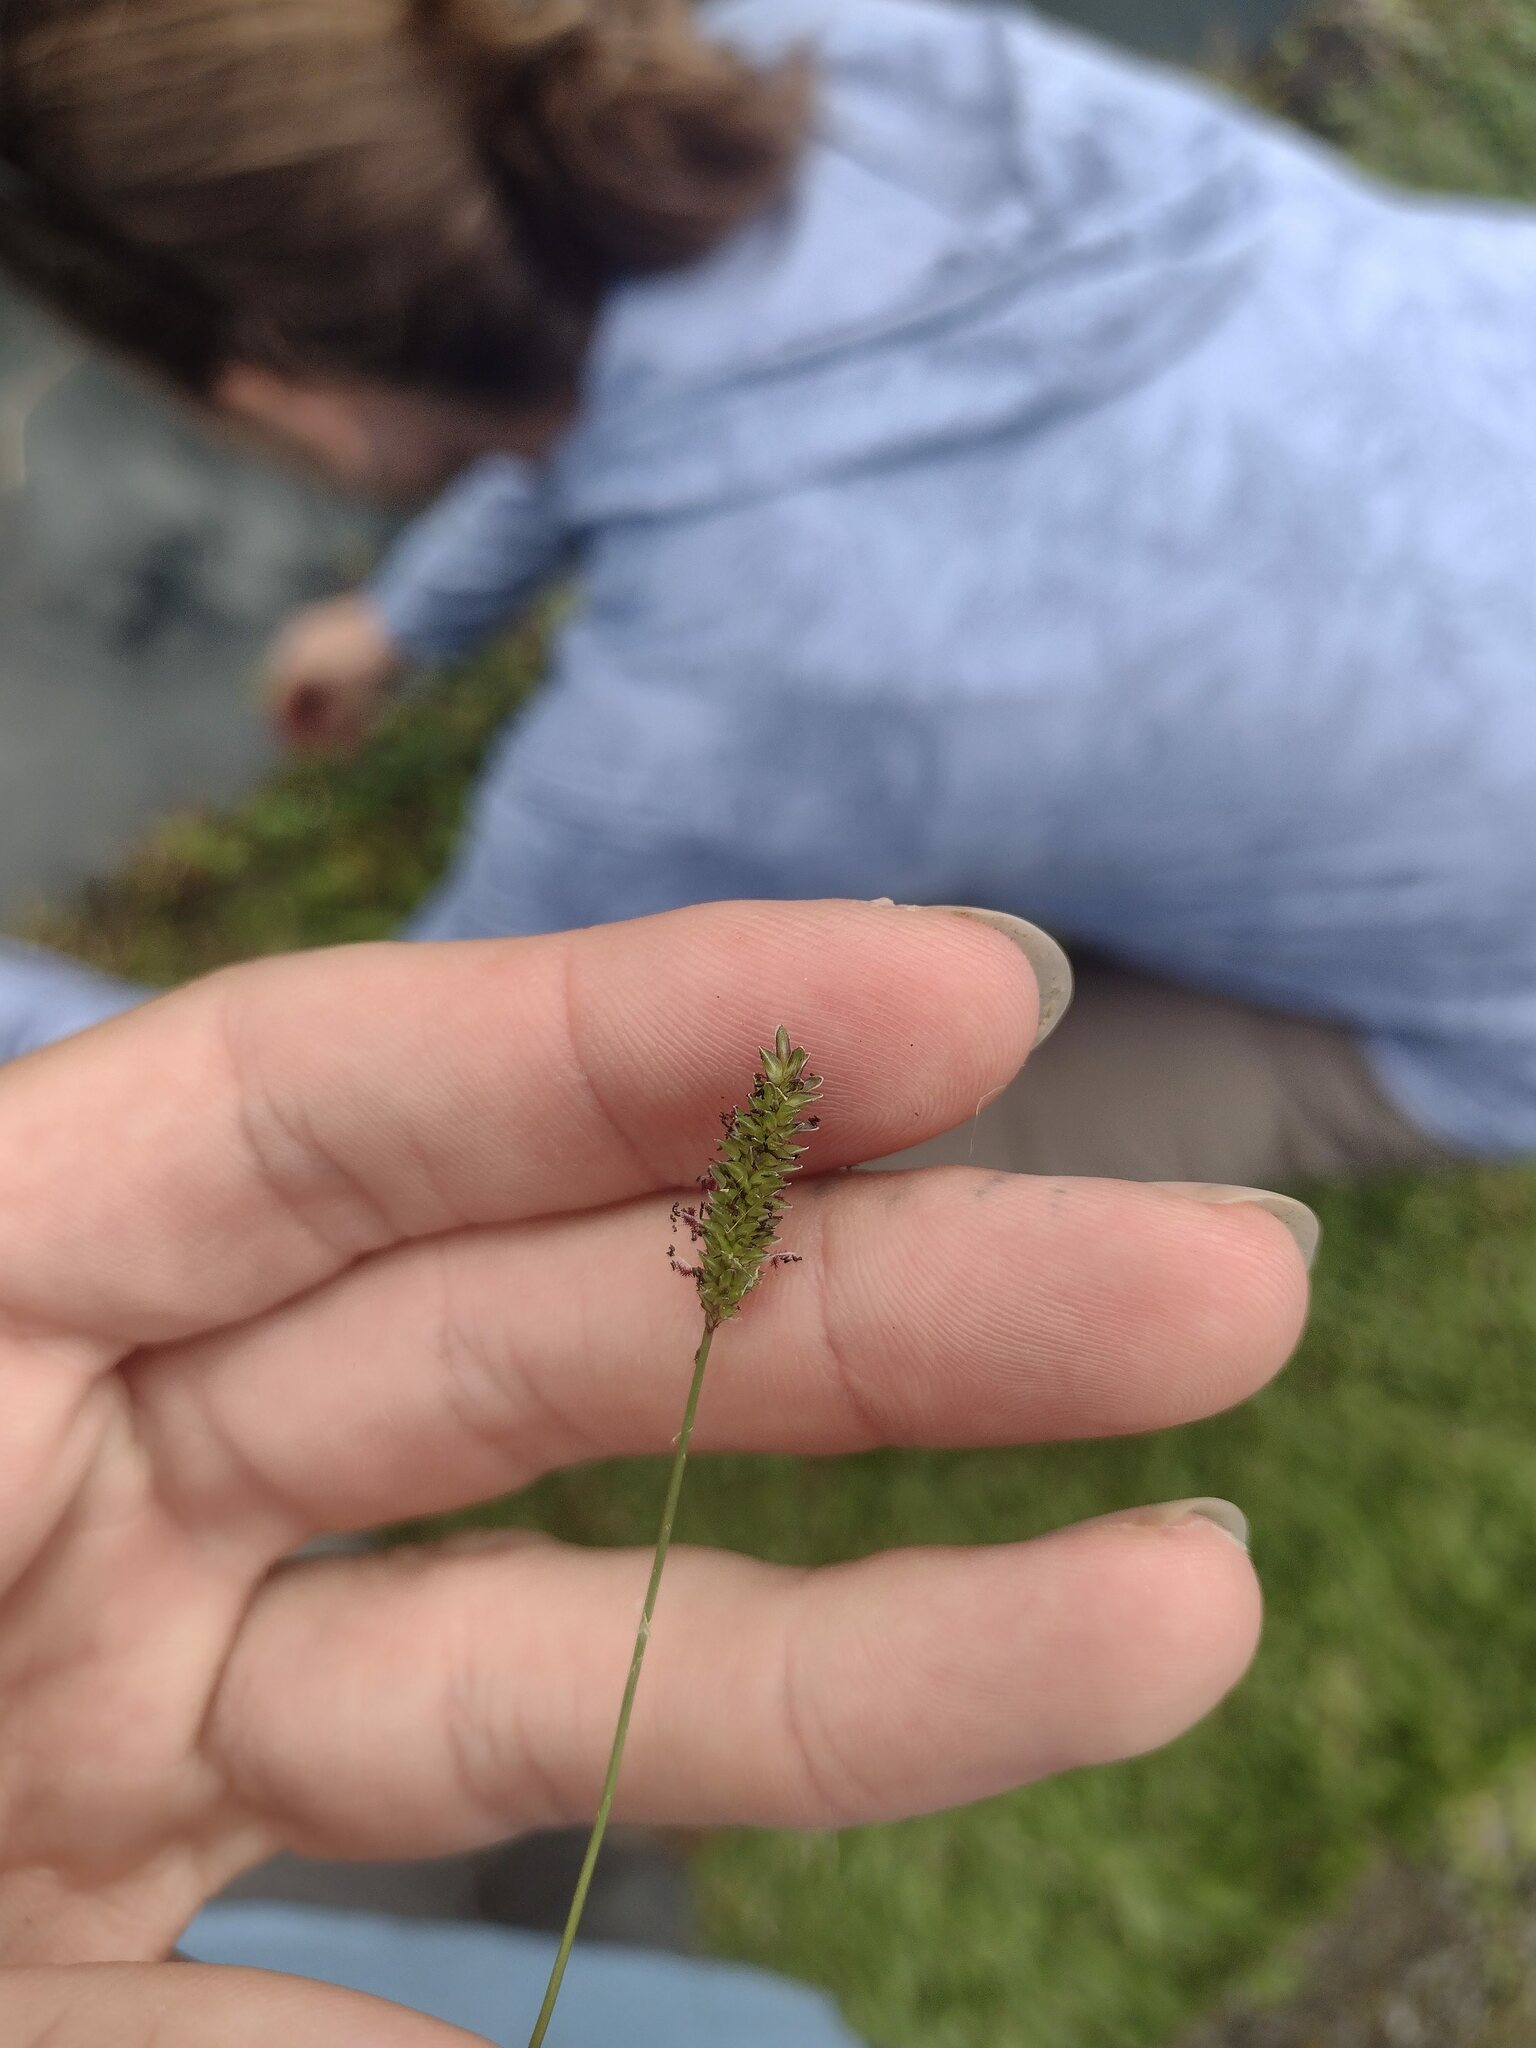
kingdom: Plantae
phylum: Tracheophyta
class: Liliopsida
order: Poales
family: Poaceae
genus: Sacciolepis
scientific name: Sacciolepis indica
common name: Glenwoodgrass
